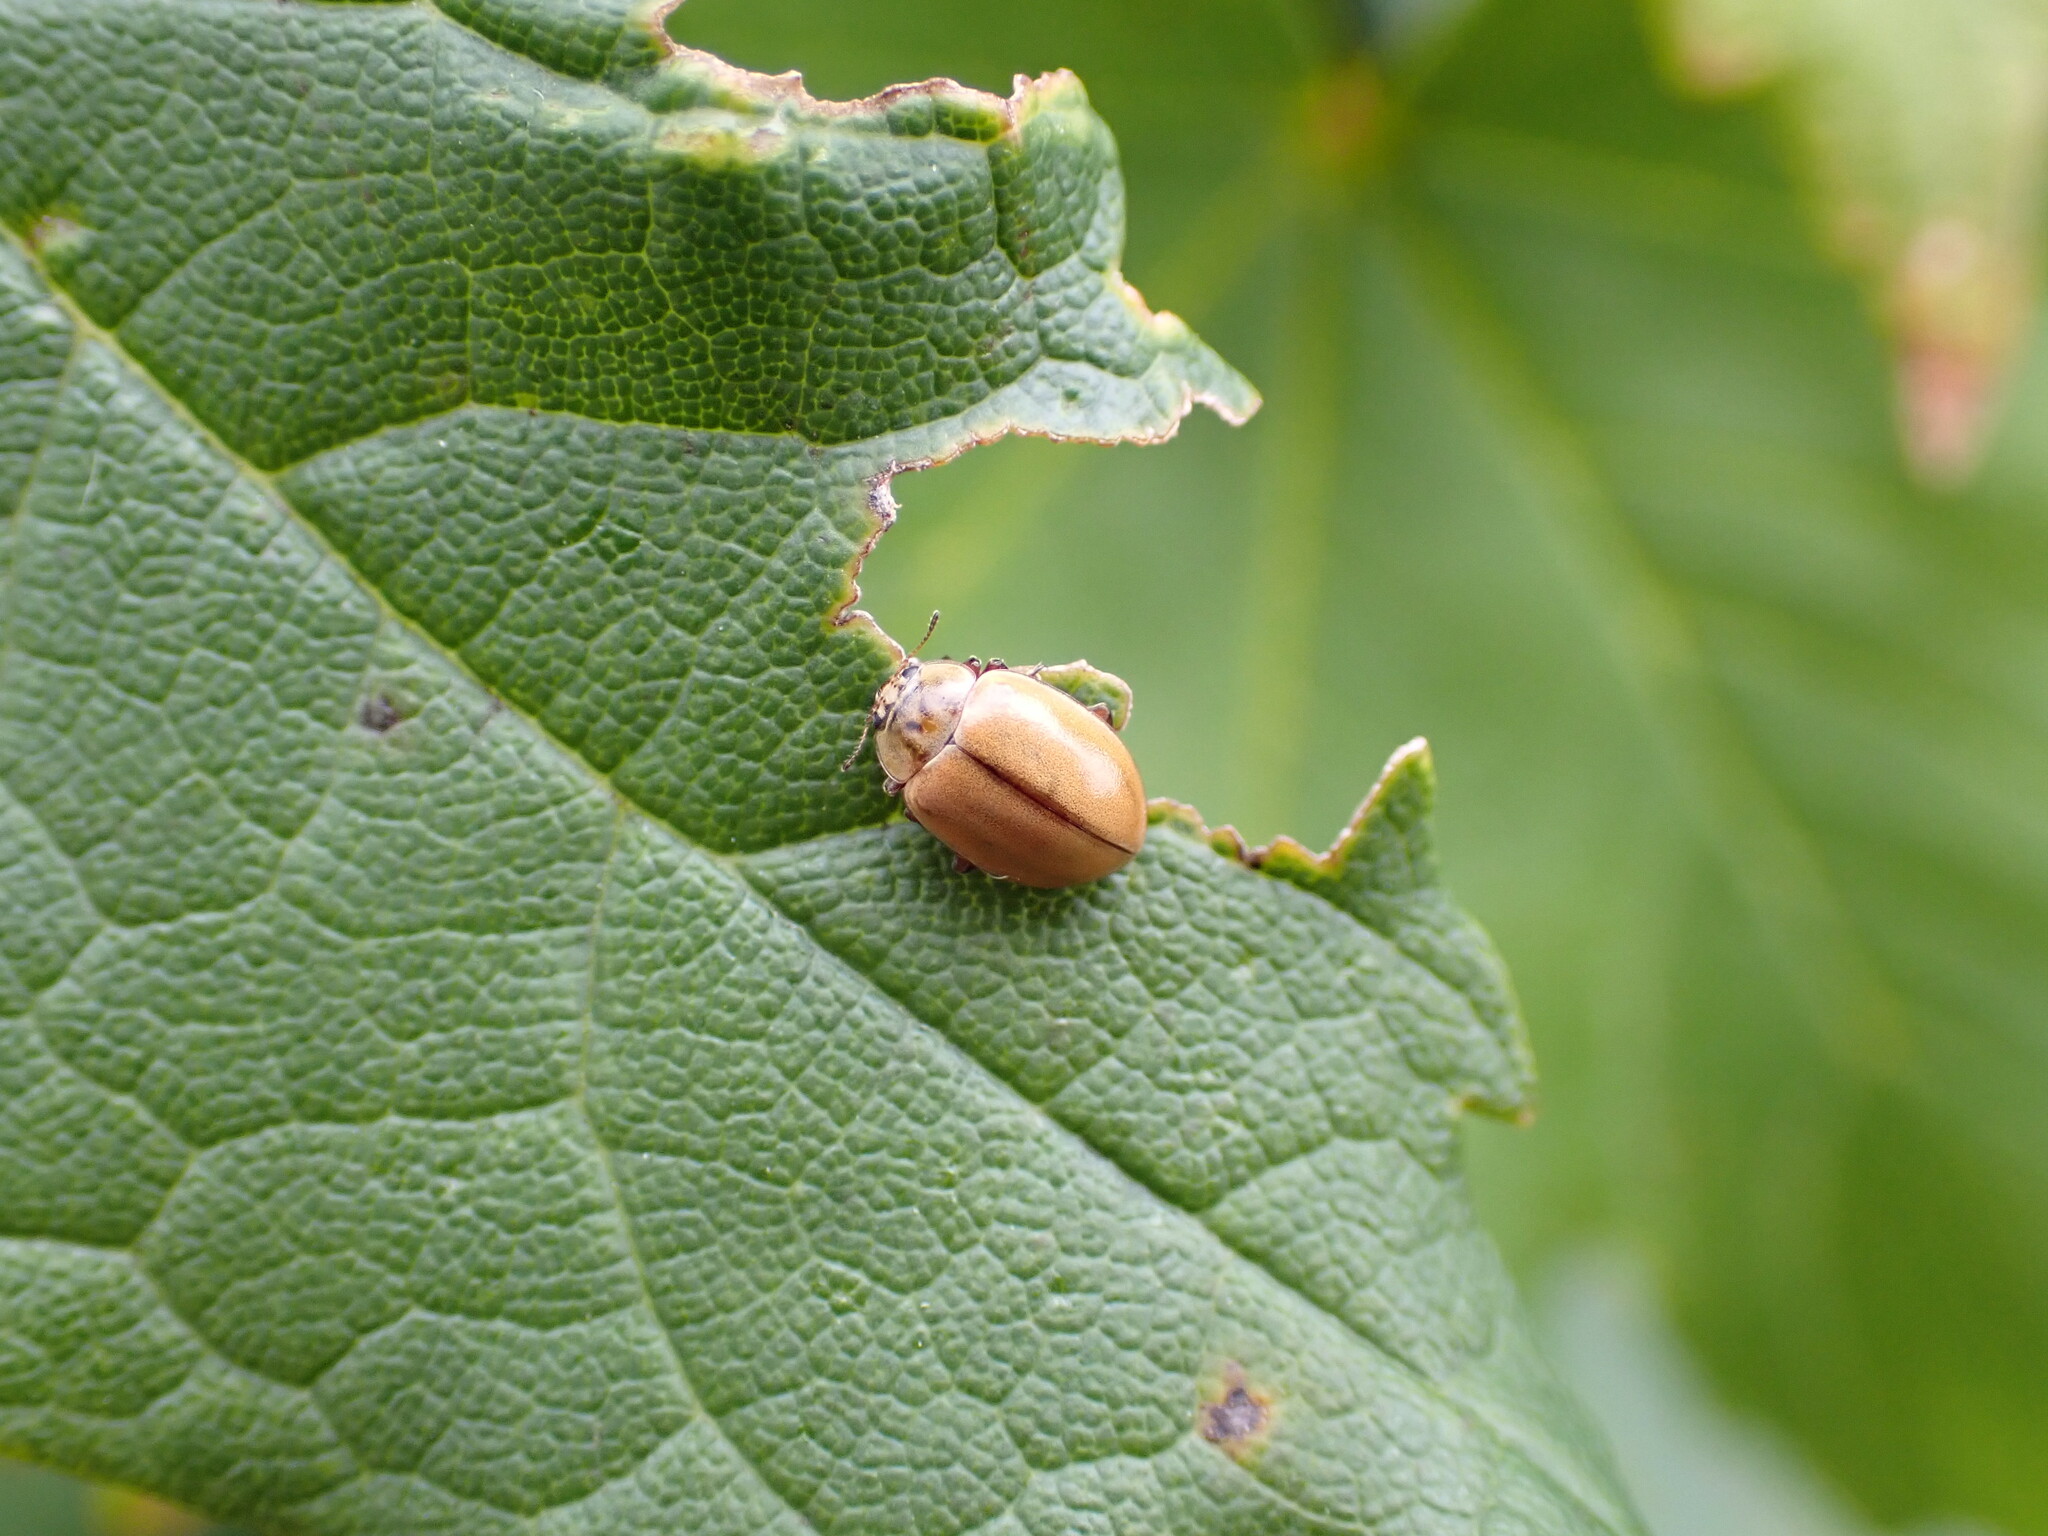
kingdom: Animalia
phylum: Arthropoda
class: Insecta
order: Coleoptera
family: Coccinellidae
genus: Aphidecta
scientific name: Aphidecta obliterata
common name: Larch ladybird
